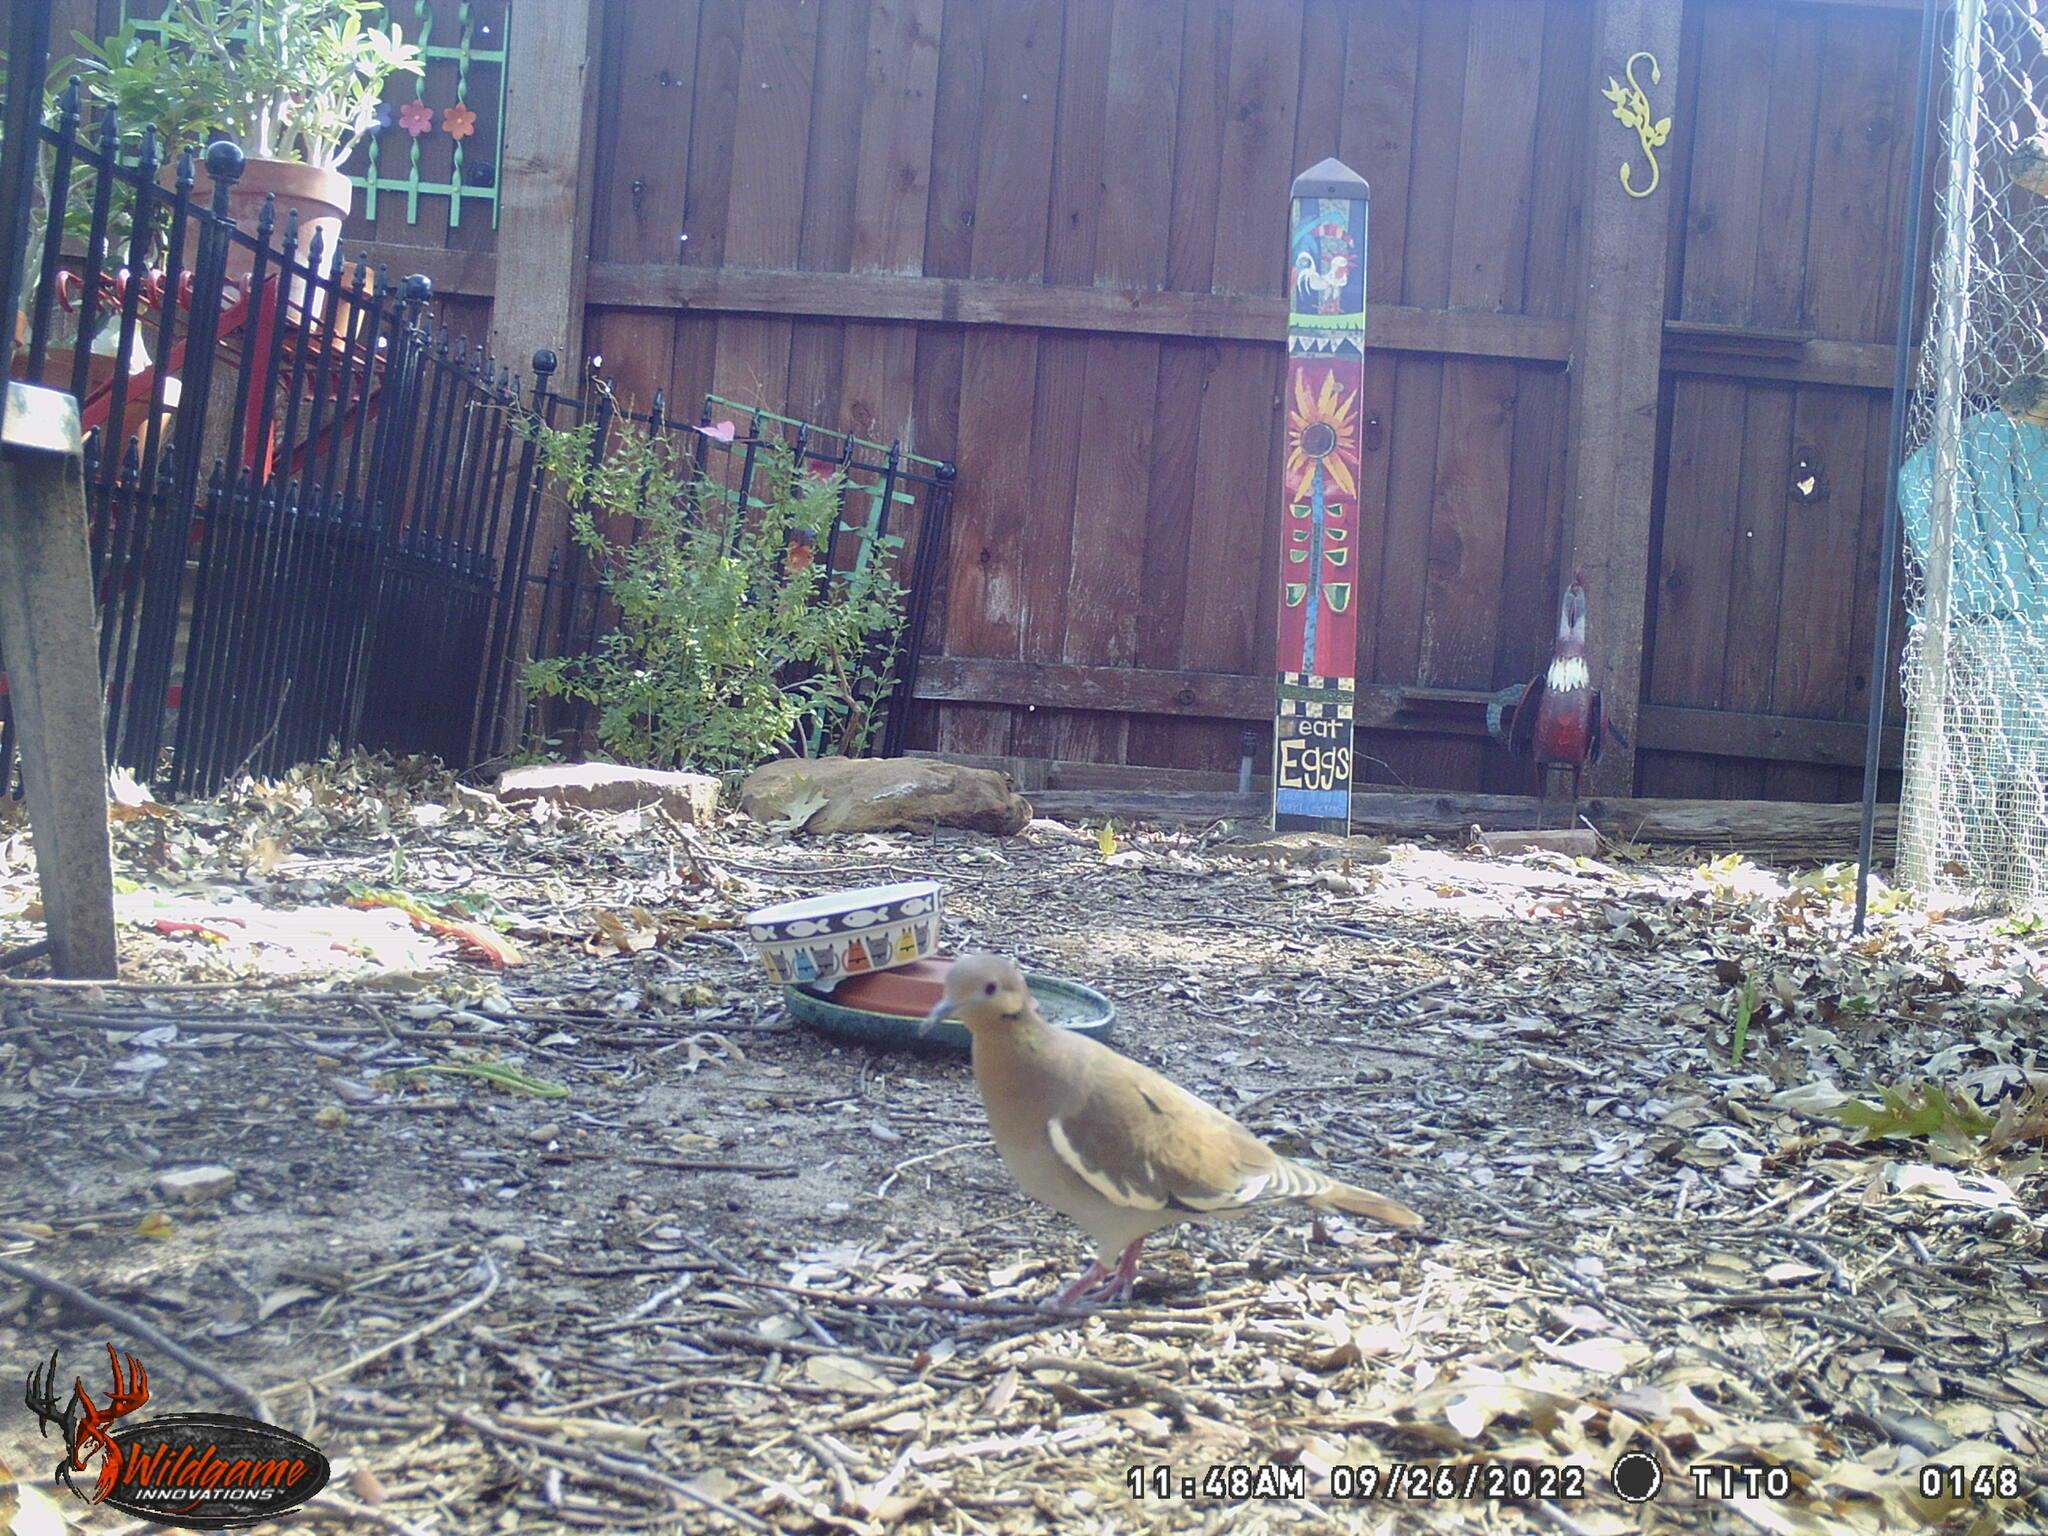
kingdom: Animalia
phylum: Chordata
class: Aves
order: Columbiformes
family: Columbidae
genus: Zenaida
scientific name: Zenaida asiatica
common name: White-winged dove
